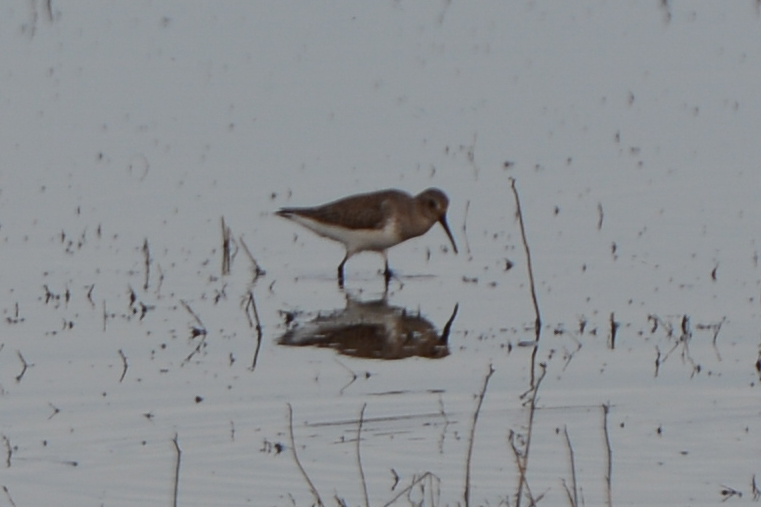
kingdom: Animalia
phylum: Chordata
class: Aves
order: Charadriiformes
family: Scolopacidae
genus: Calidris
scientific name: Calidris alpina
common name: Dunlin
